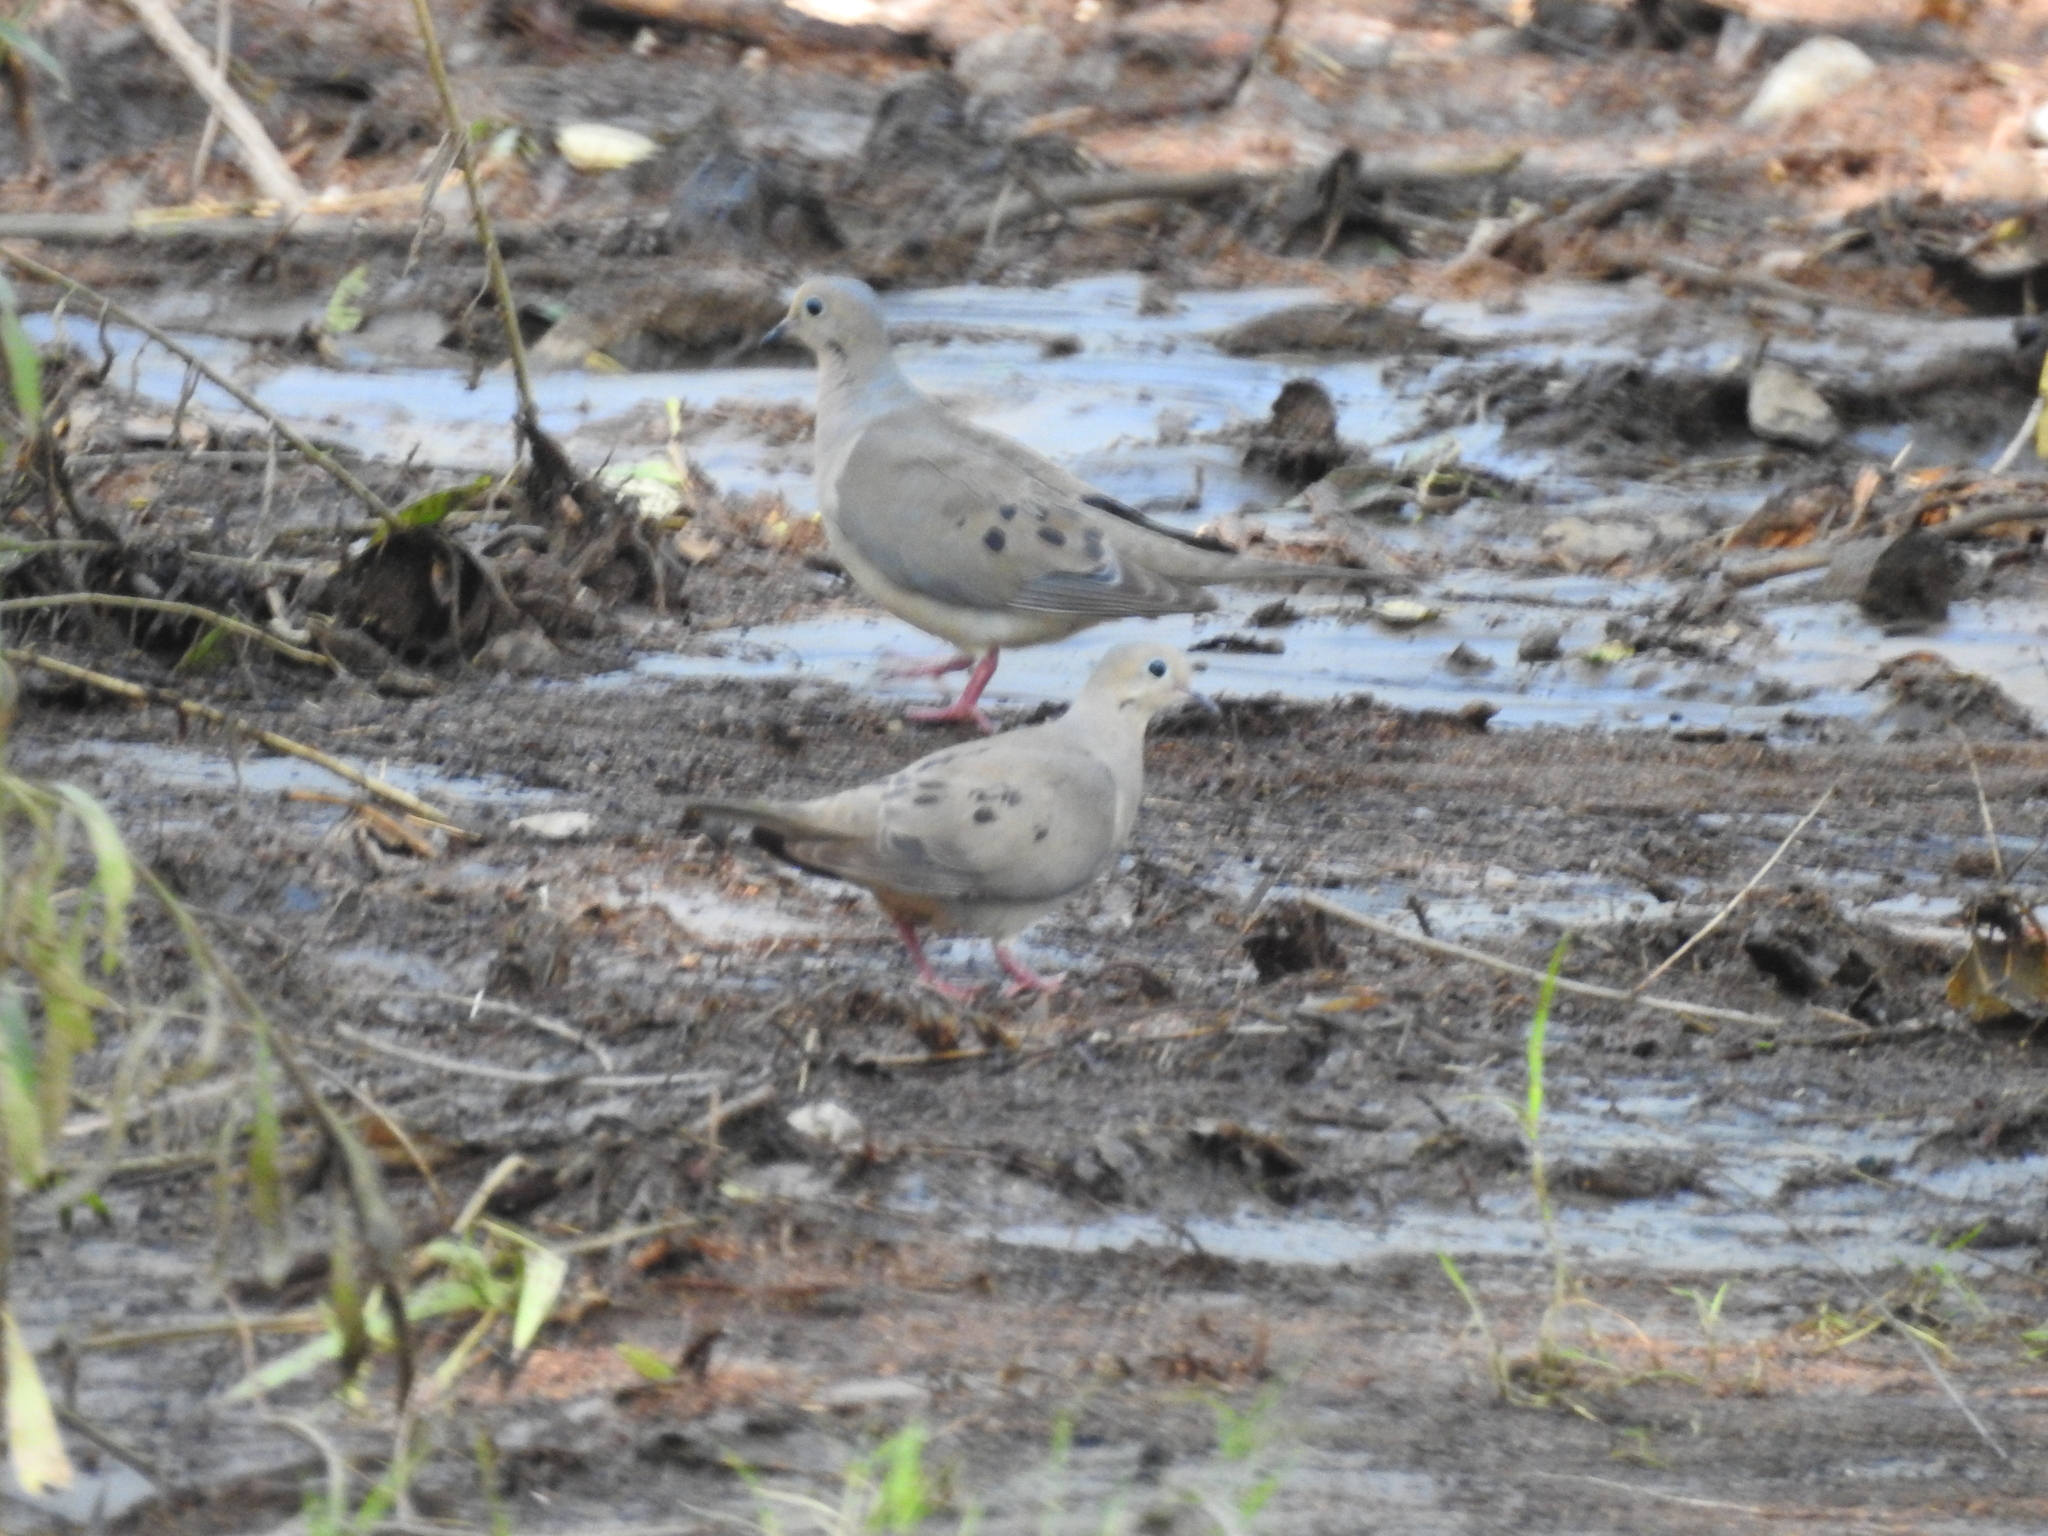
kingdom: Animalia
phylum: Chordata
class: Aves
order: Columbiformes
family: Columbidae
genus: Zenaida
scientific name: Zenaida macroura
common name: Mourning dove
